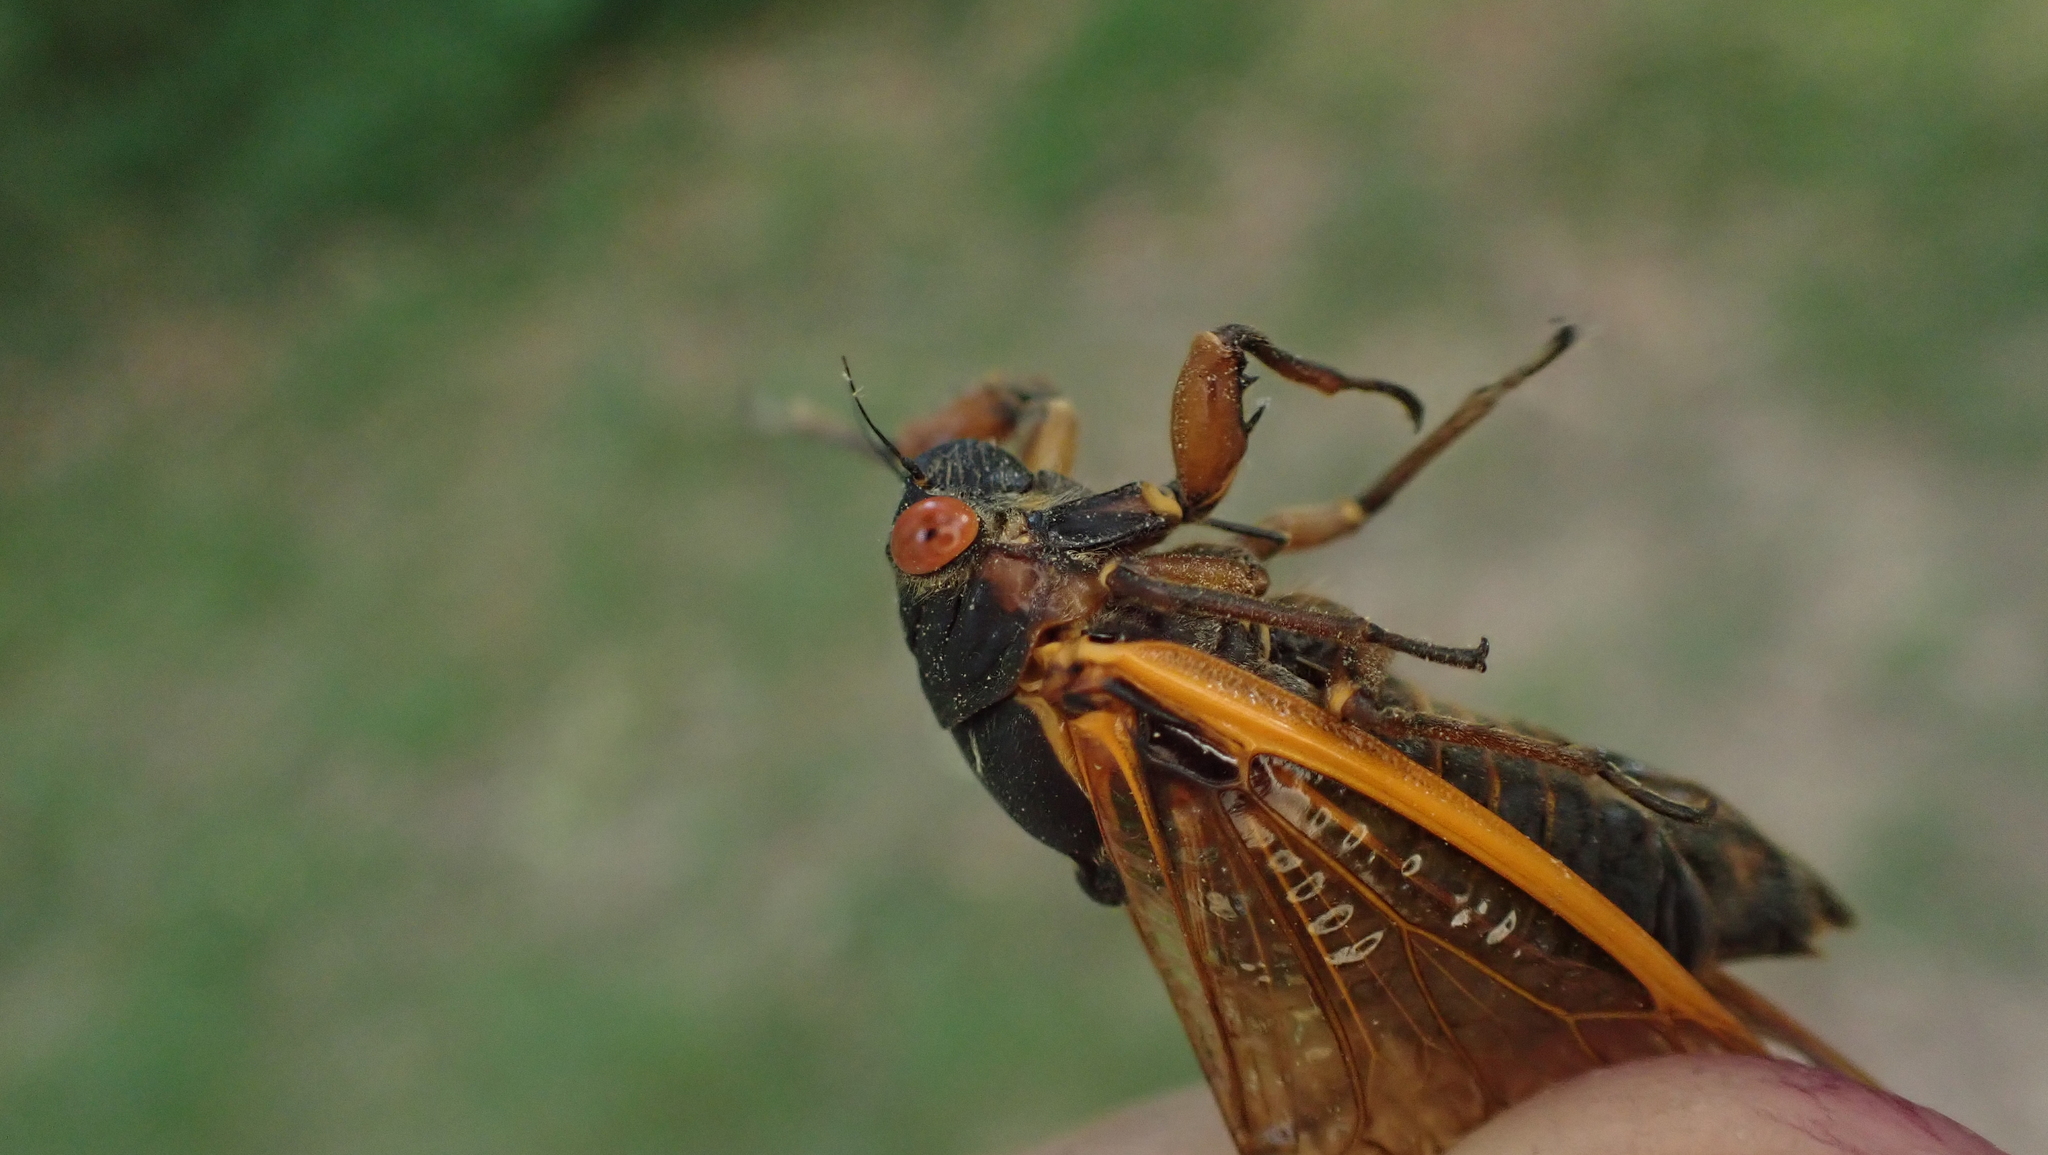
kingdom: Animalia
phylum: Arthropoda
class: Insecta
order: Hemiptera
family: Cicadidae
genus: Magicicada
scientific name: Magicicada septendecim
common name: Periodical cicada
